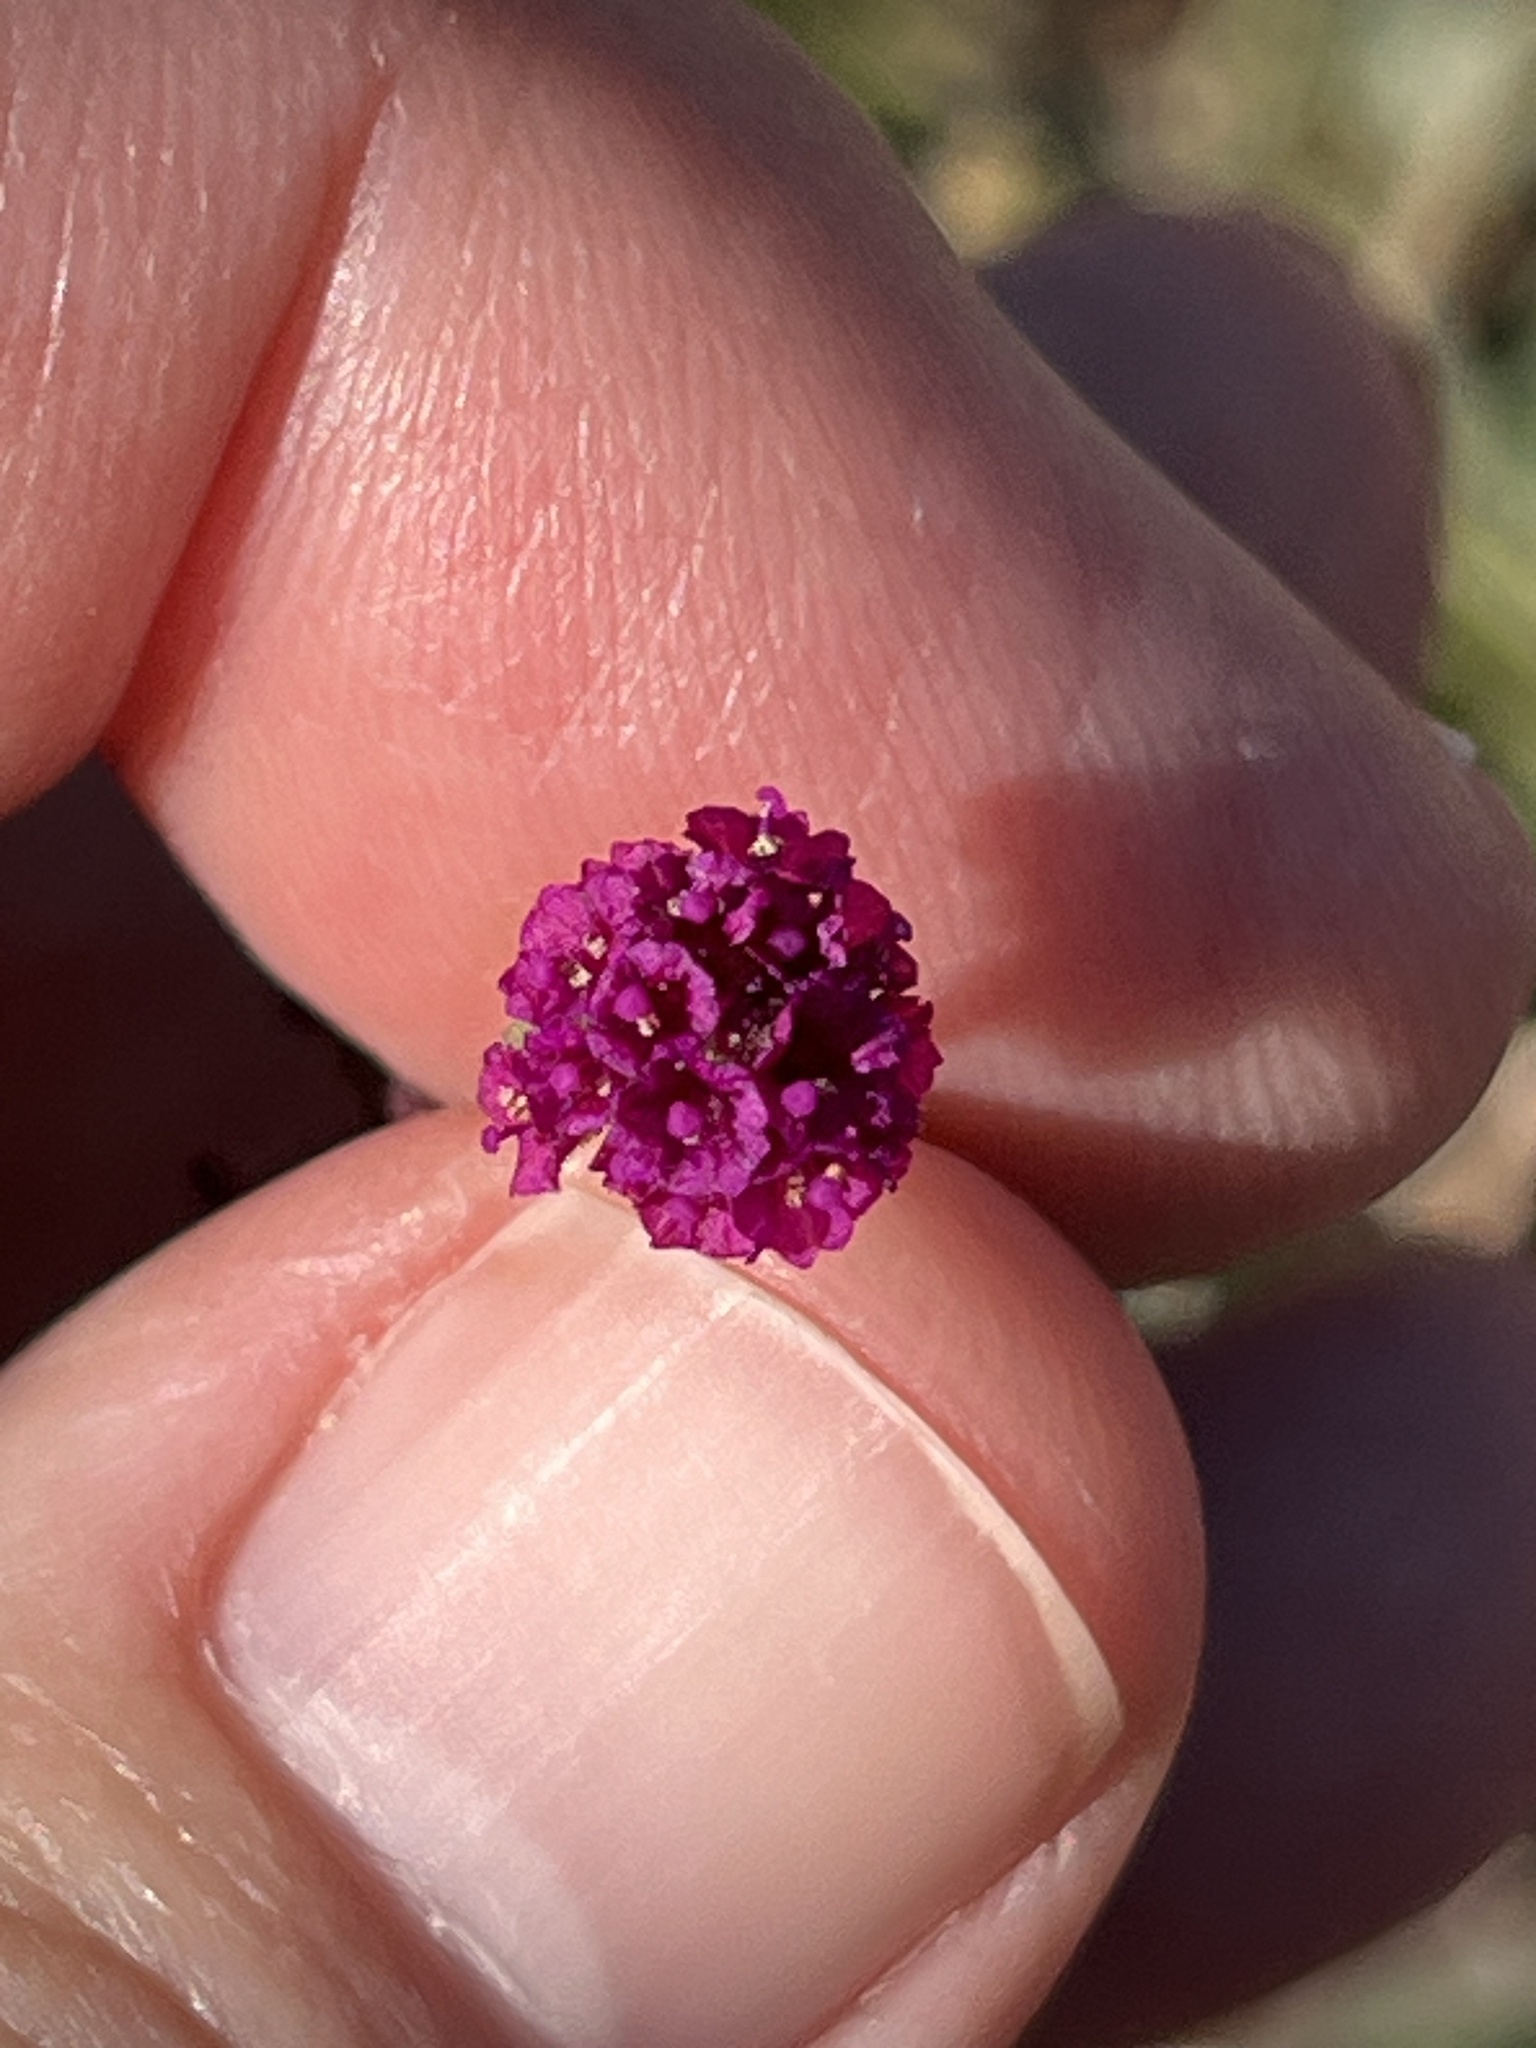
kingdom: Plantae
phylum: Tracheophyta
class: Magnoliopsida
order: Caryophyllales
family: Nyctaginaceae
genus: Boerhavia
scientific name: Boerhavia coccinea
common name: Scarlet spiderling
